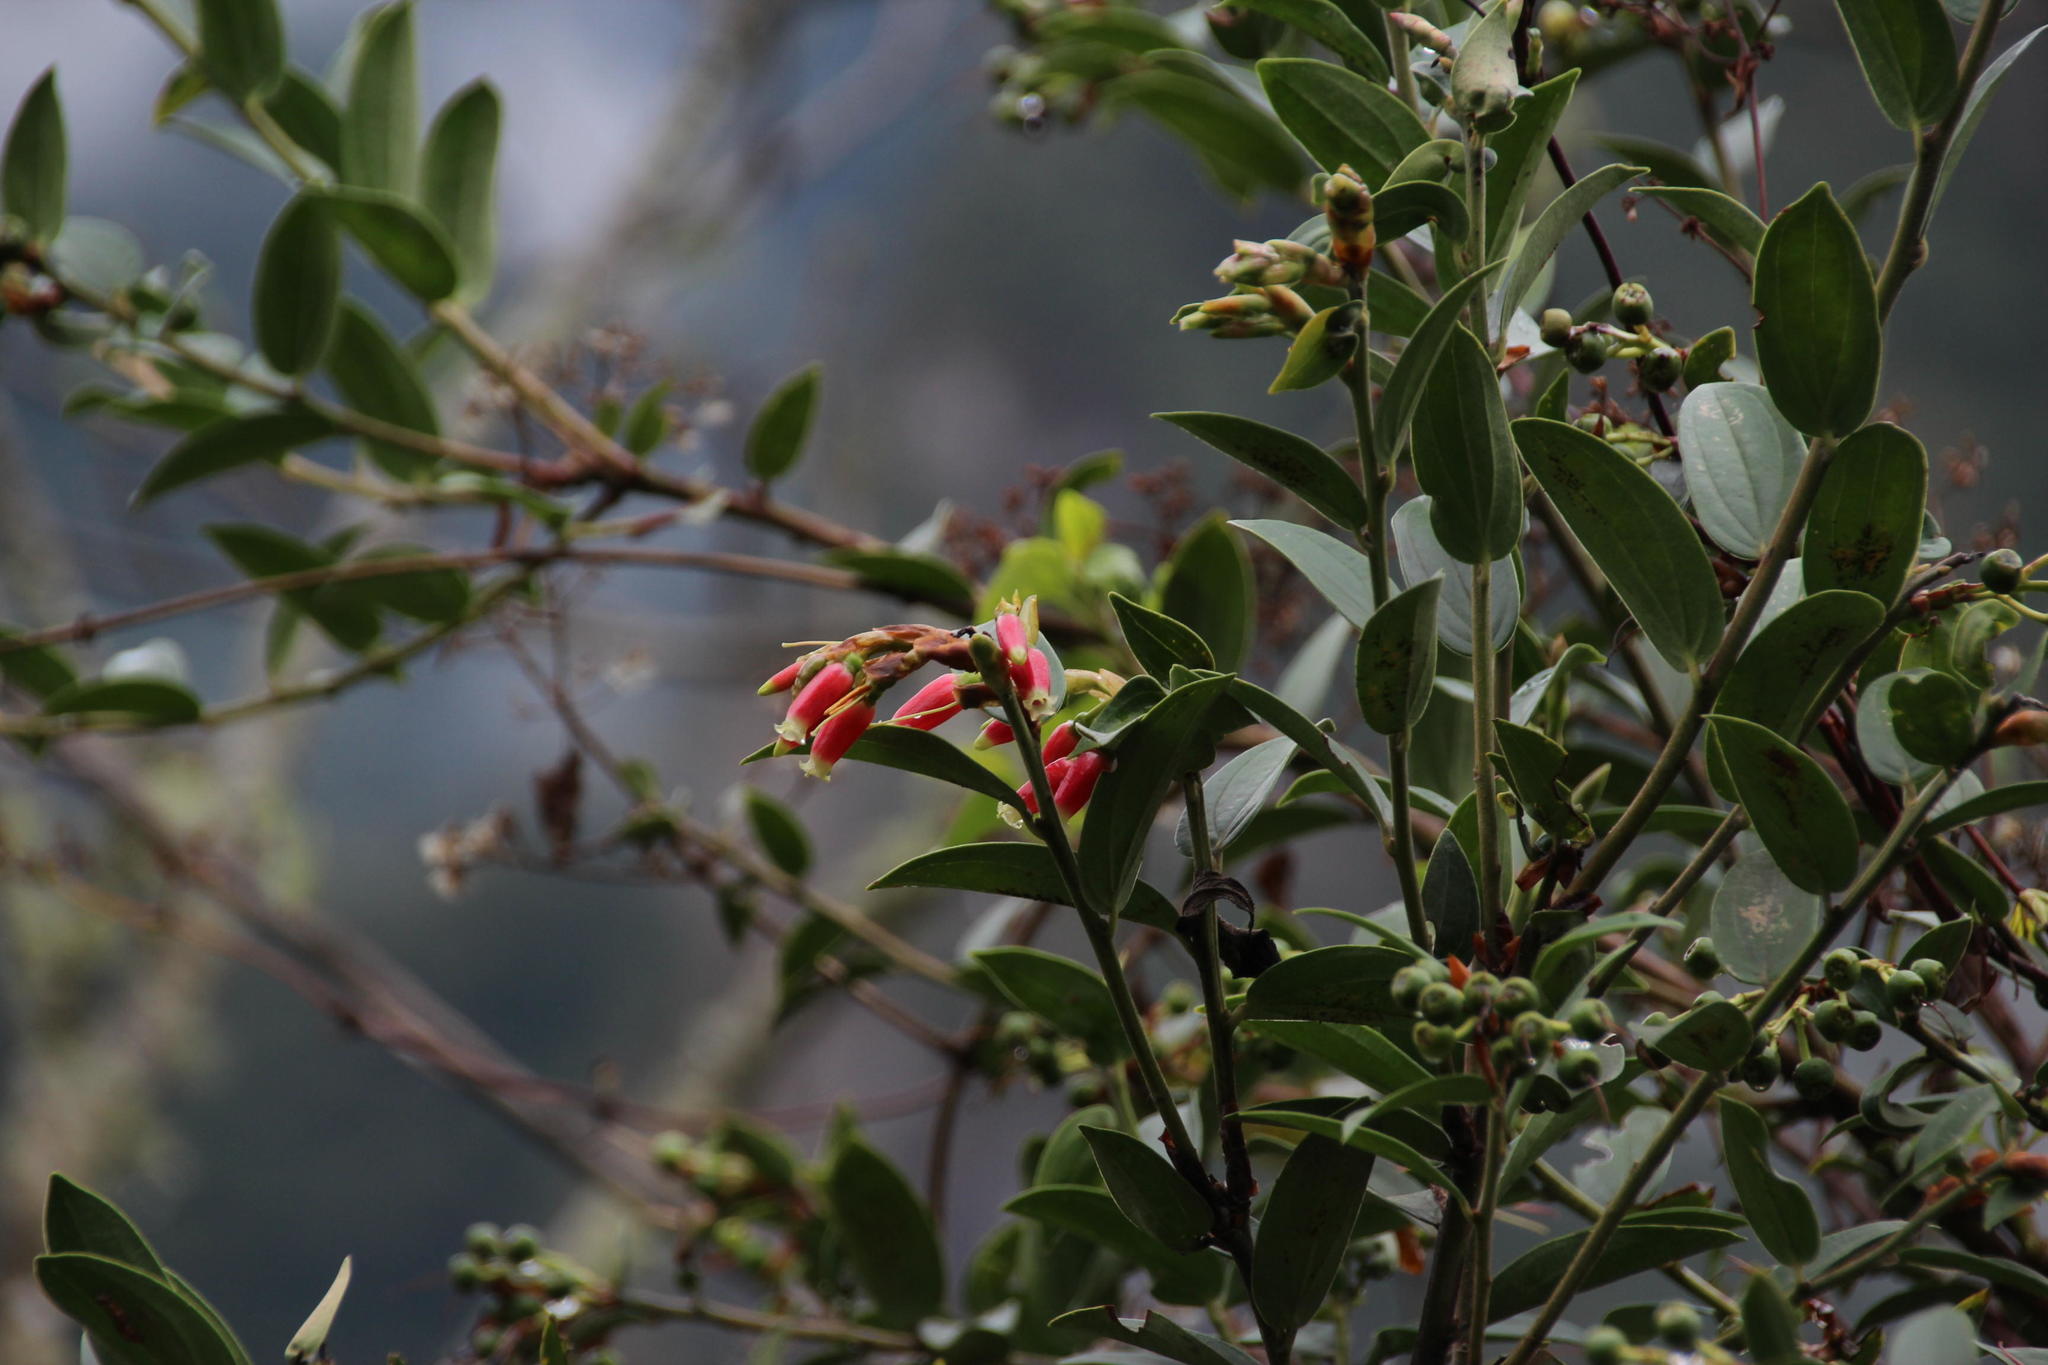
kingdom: Plantae
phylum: Tracheophyta
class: Magnoliopsida
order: Ericales
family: Ericaceae
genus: Cavendishia
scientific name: Cavendishia bracteata
